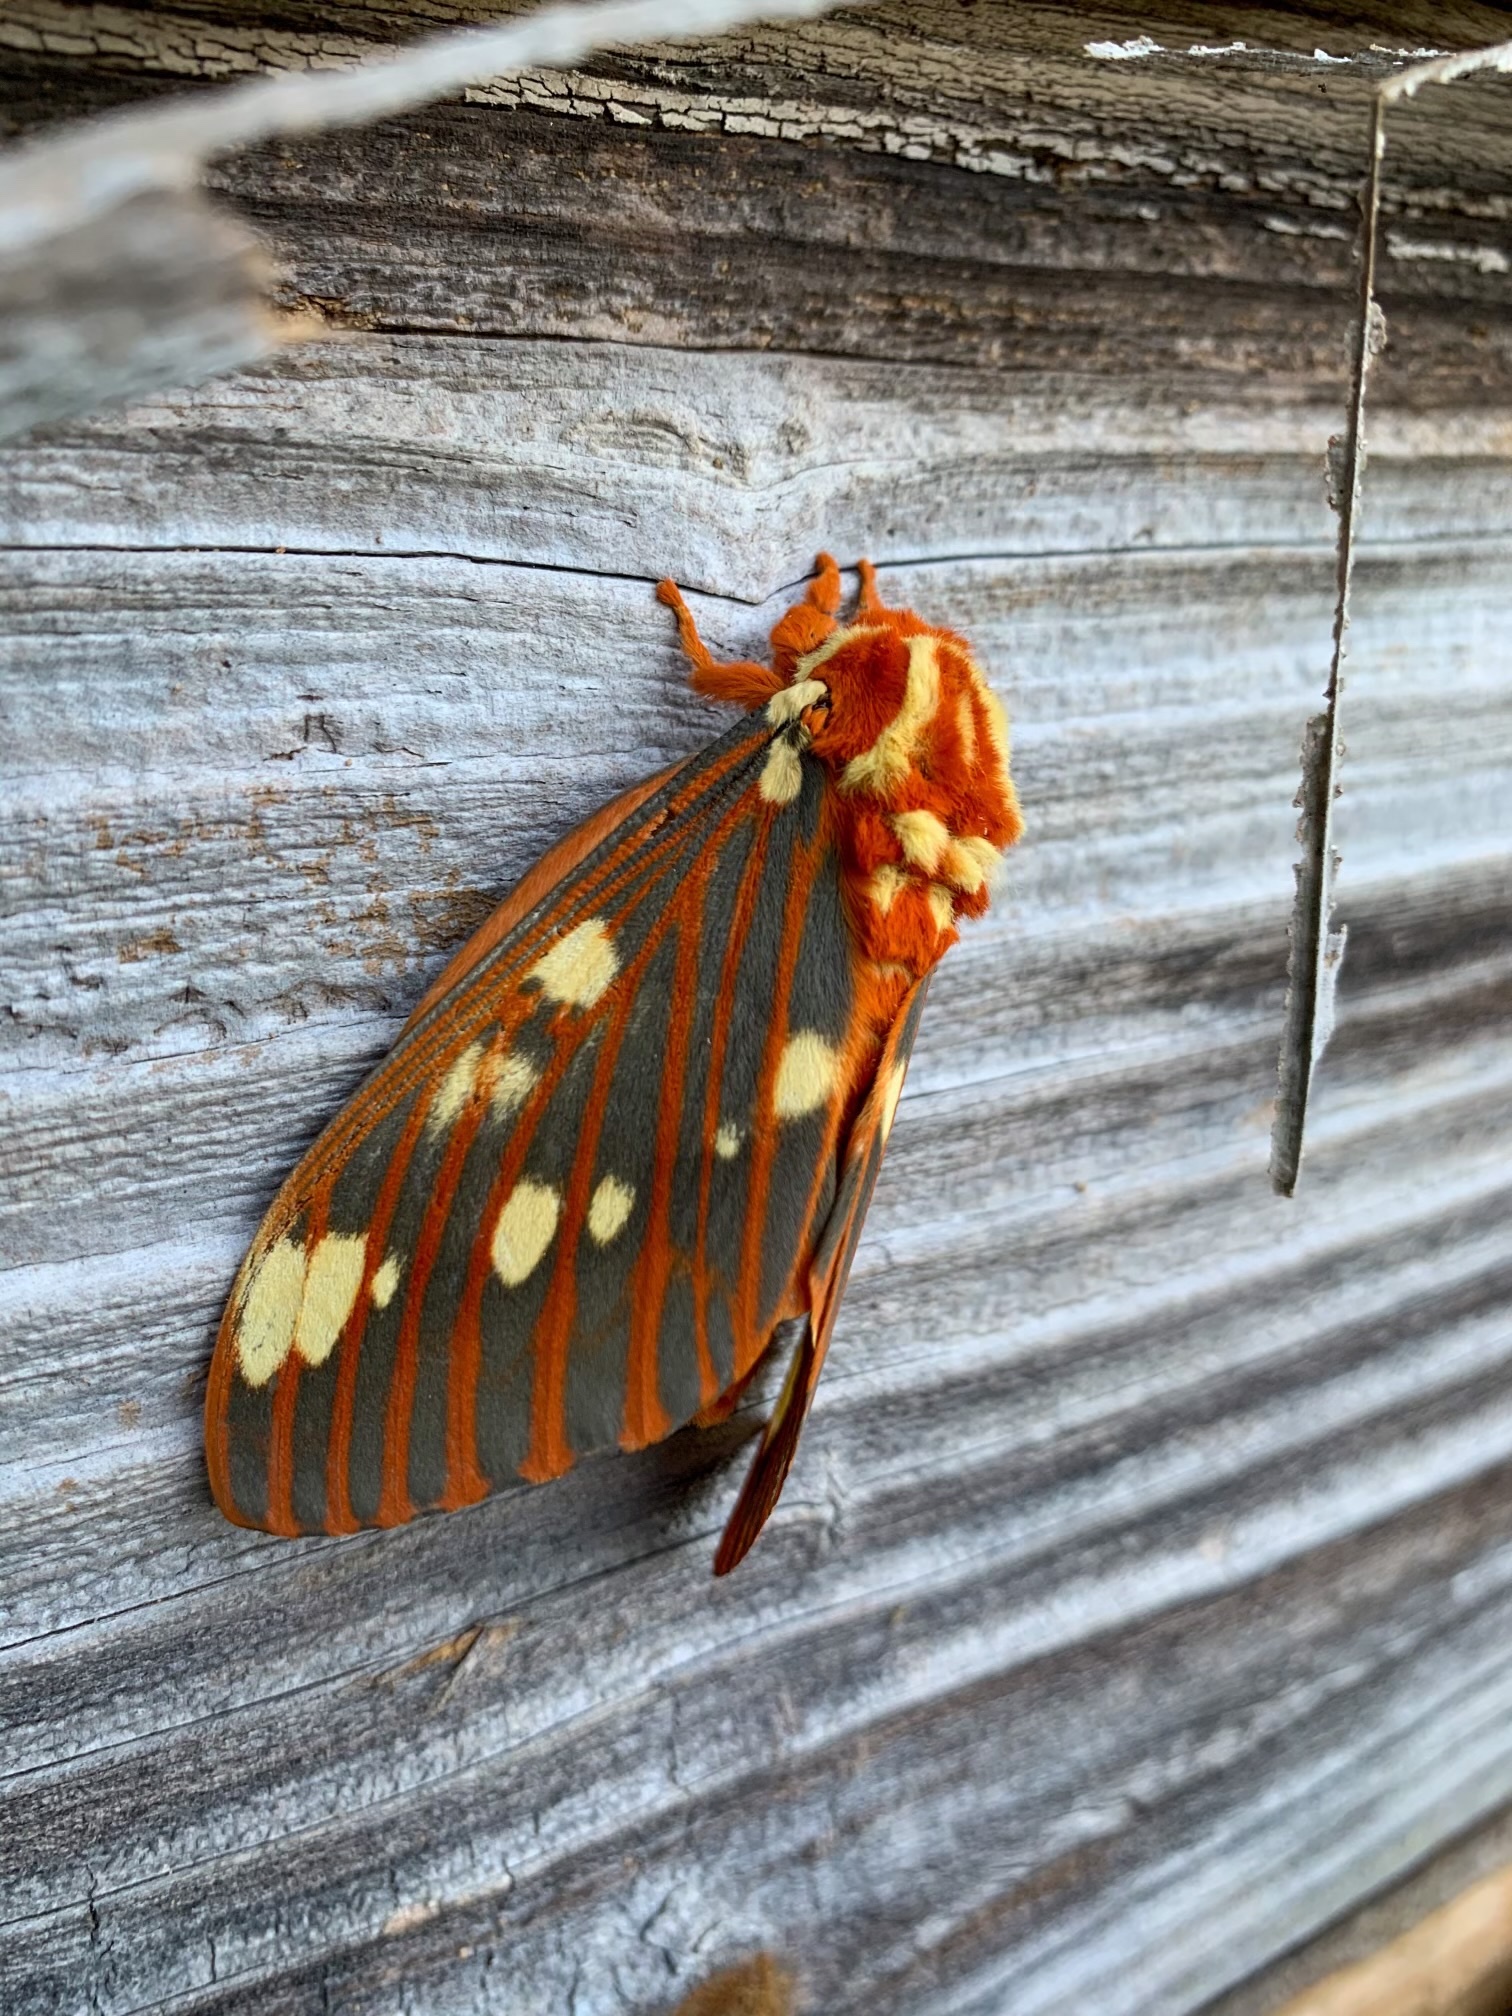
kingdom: Animalia
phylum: Arthropoda
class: Insecta
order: Lepidoptera
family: Saturniidae
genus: Citheronia
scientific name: Citheronia regalis
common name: Hickory horned devil
